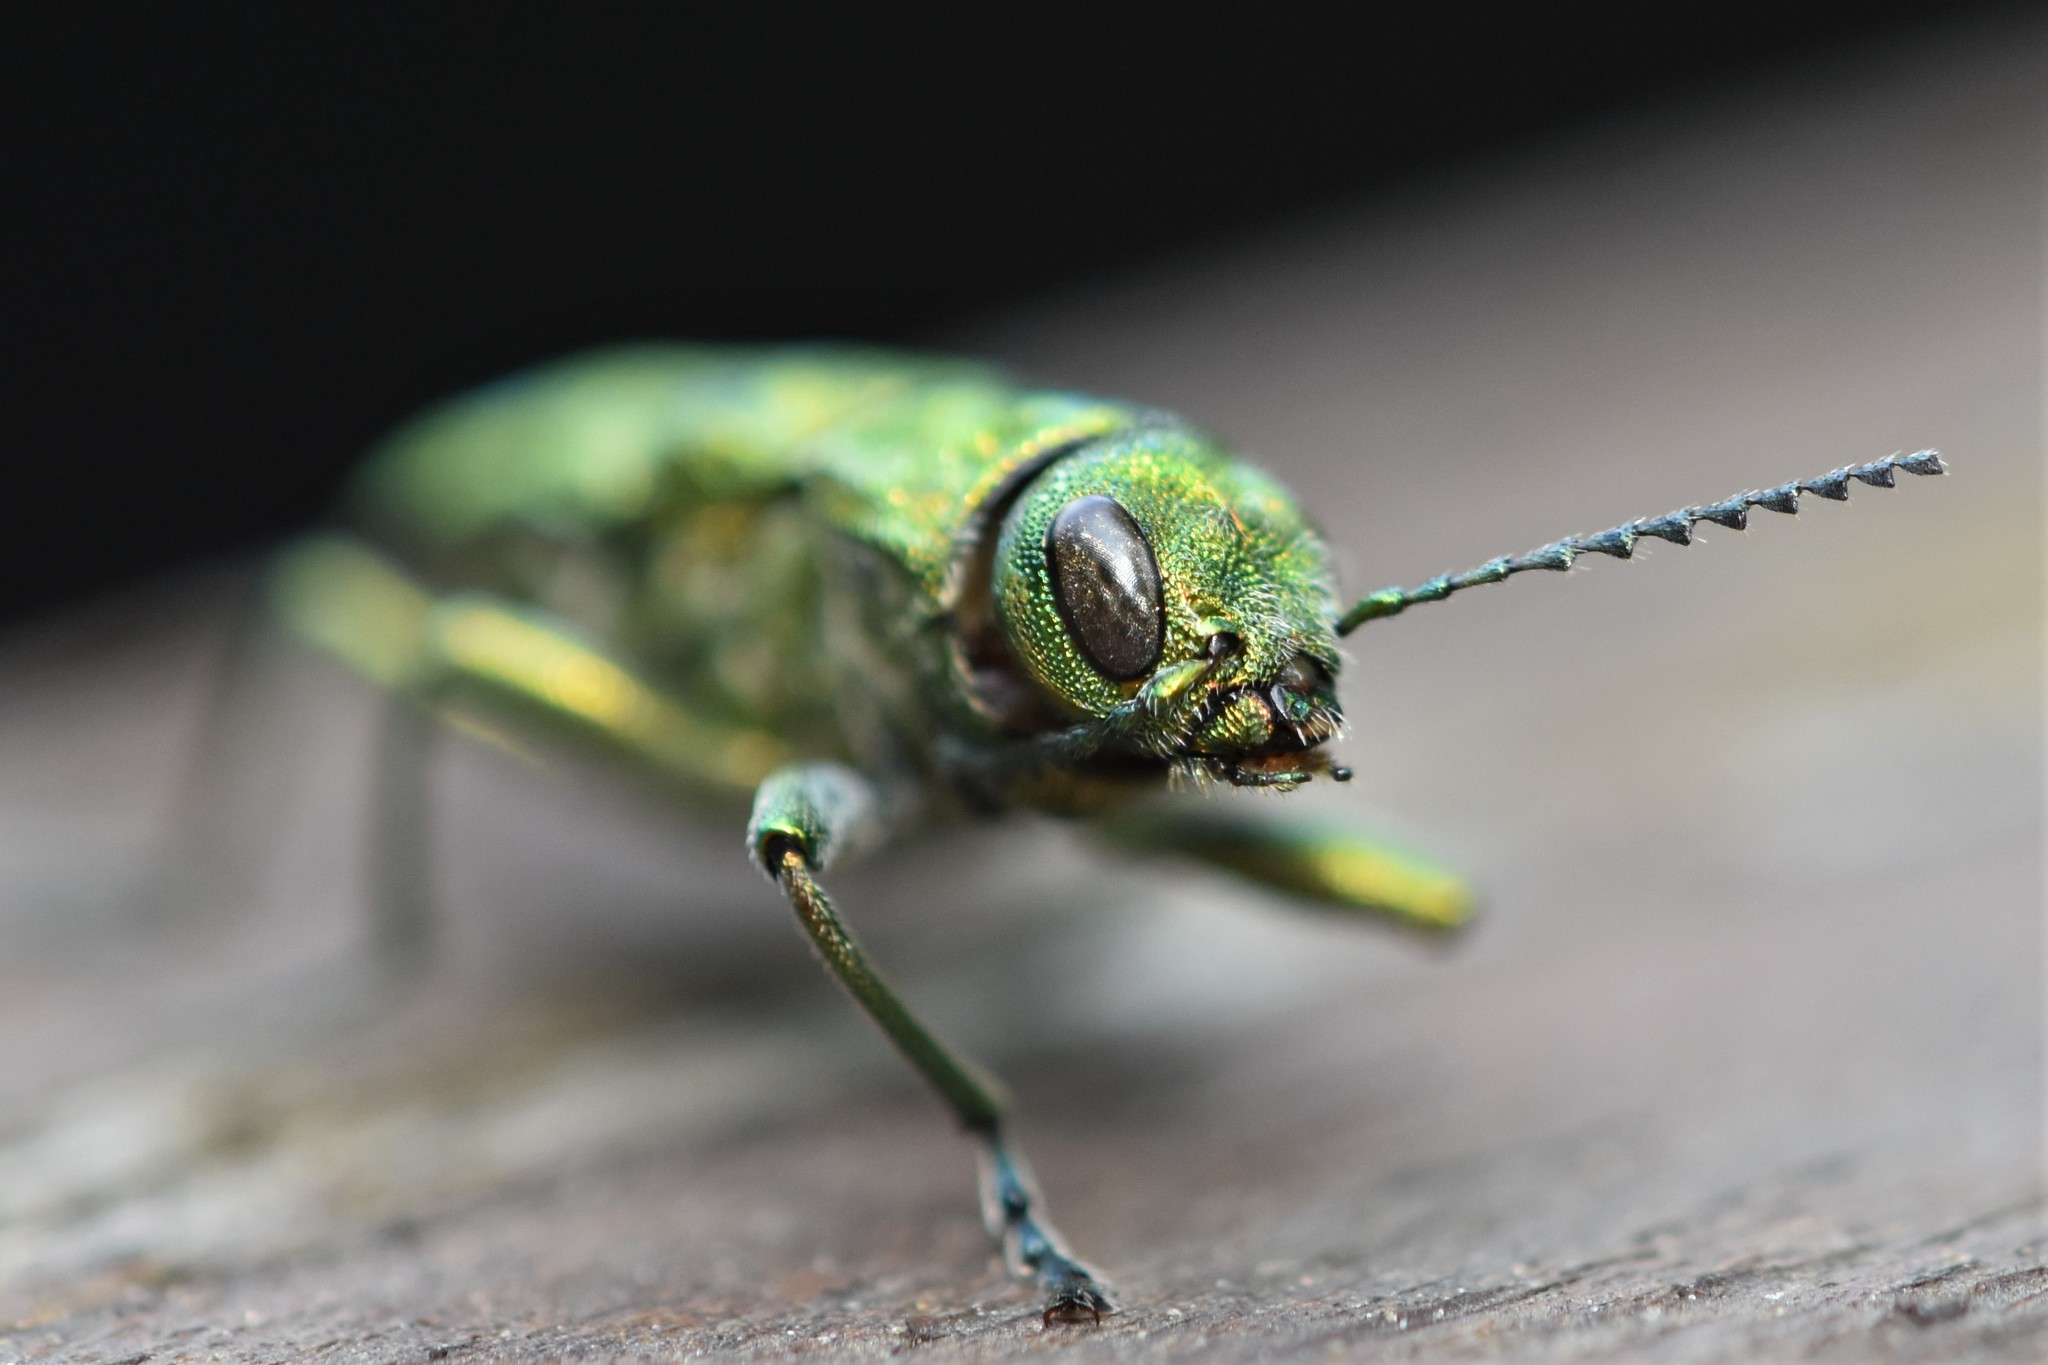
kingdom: Animalia
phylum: Arthropoda
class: Insecta
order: Coleoptera
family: Buprestidae
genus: Trachykele
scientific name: Trachykele blondeli
